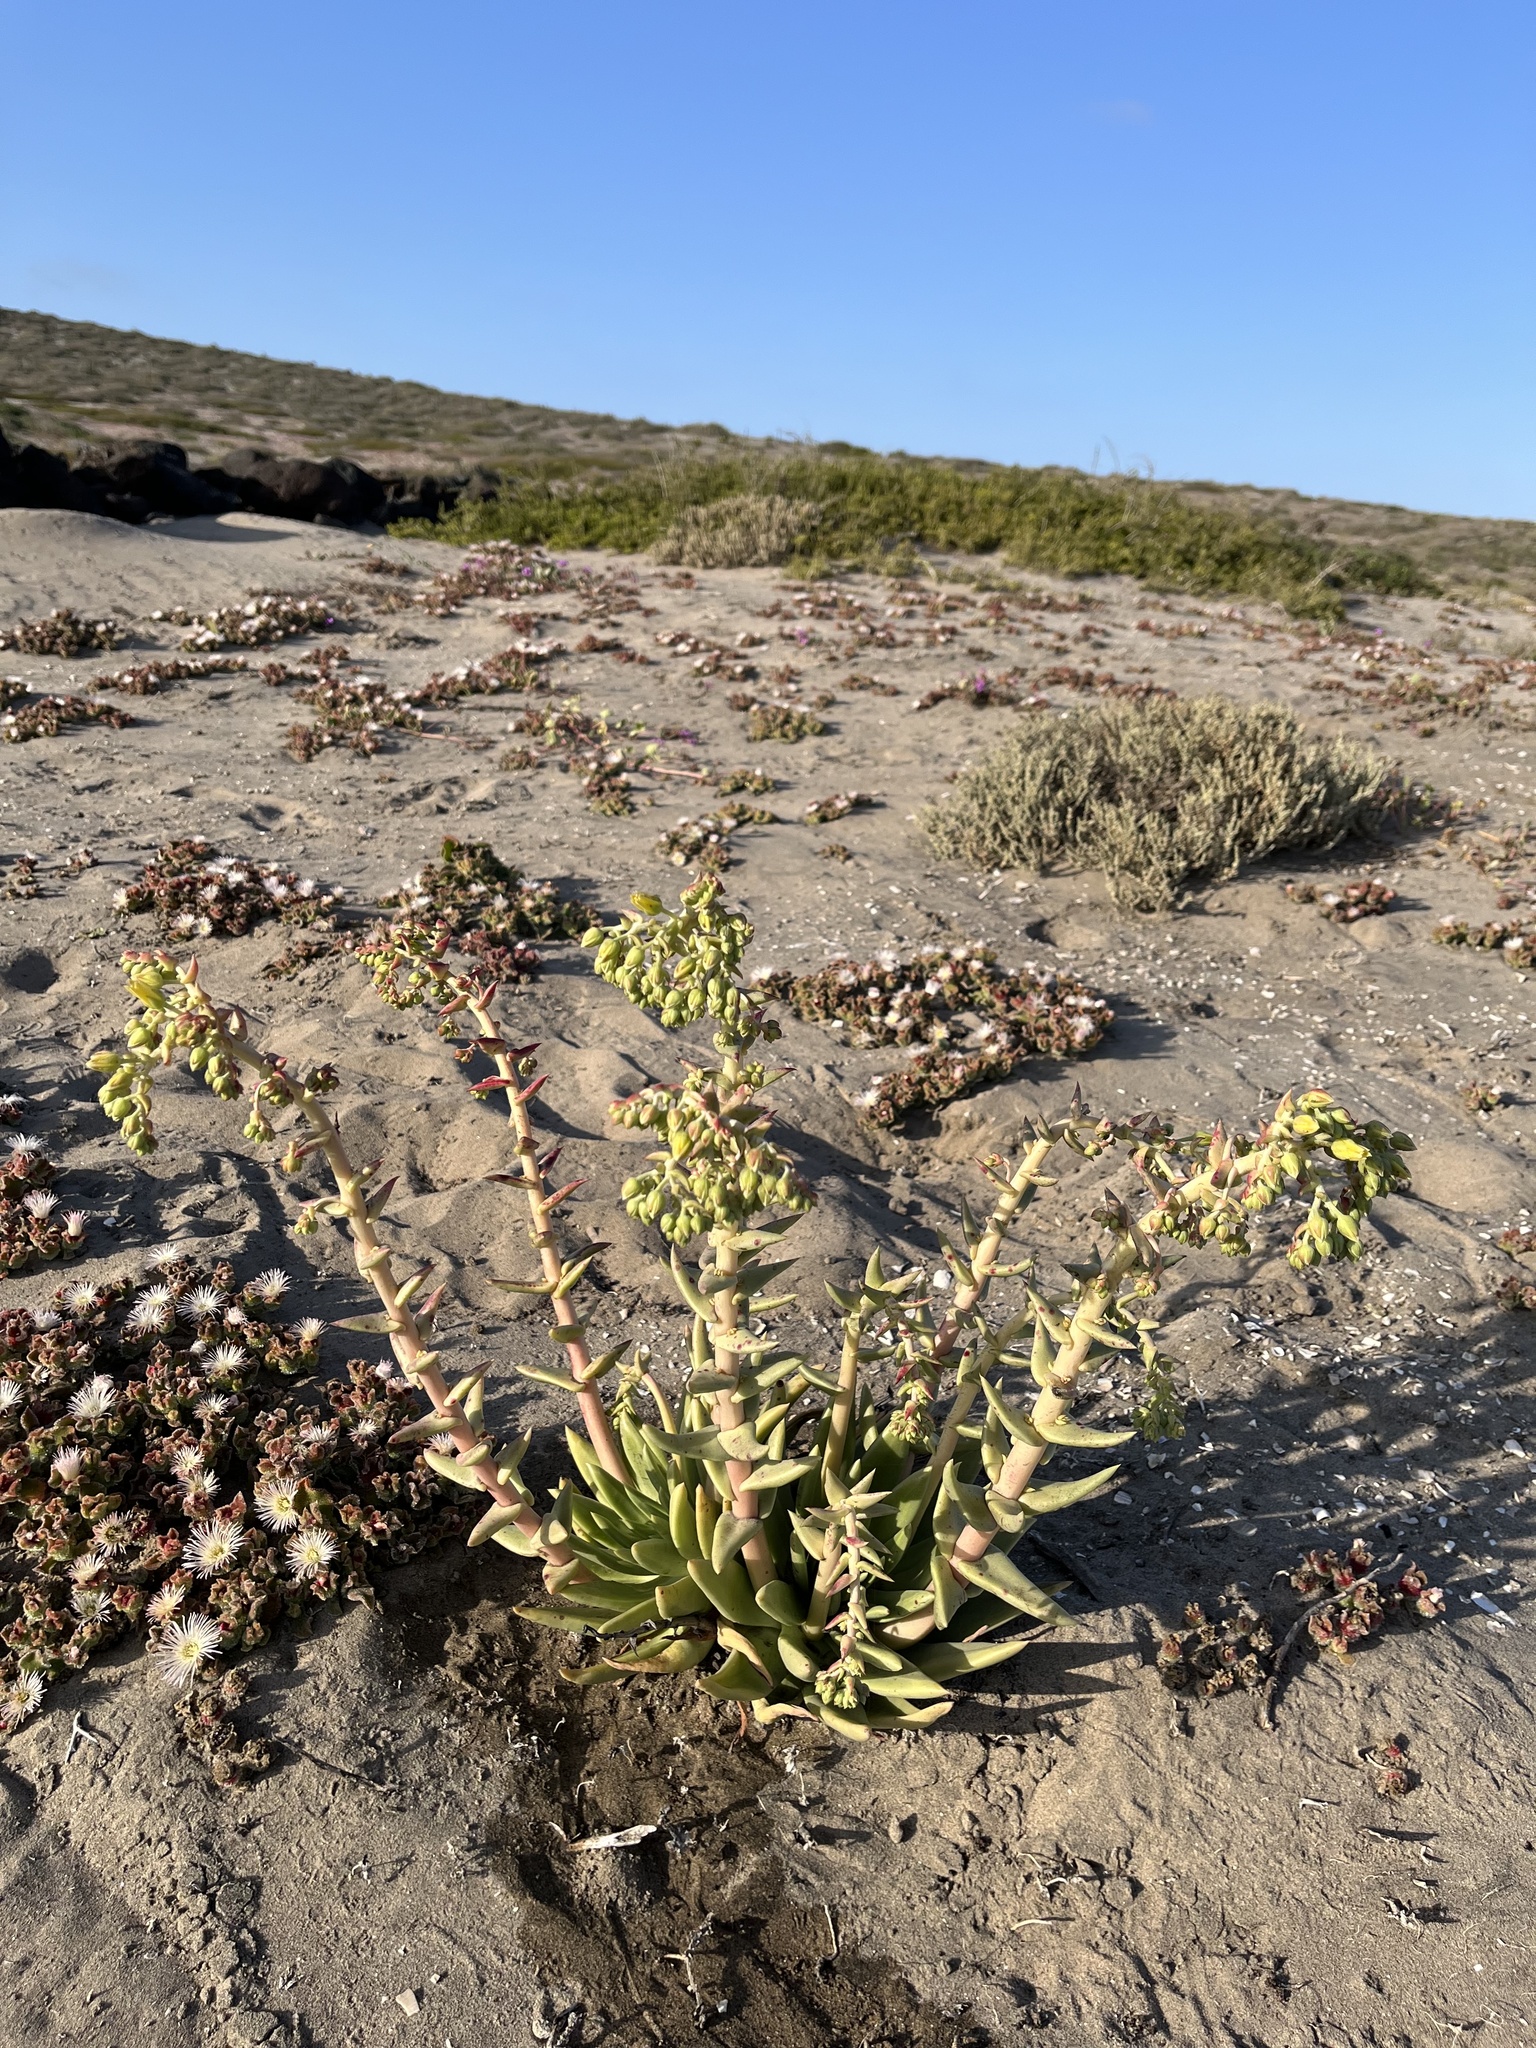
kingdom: Plantae
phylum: Tracheophyta
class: Magnoliopsida
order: Saxifragales
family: Crassulaceae
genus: Dudleya
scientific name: Dudleya cultrata
